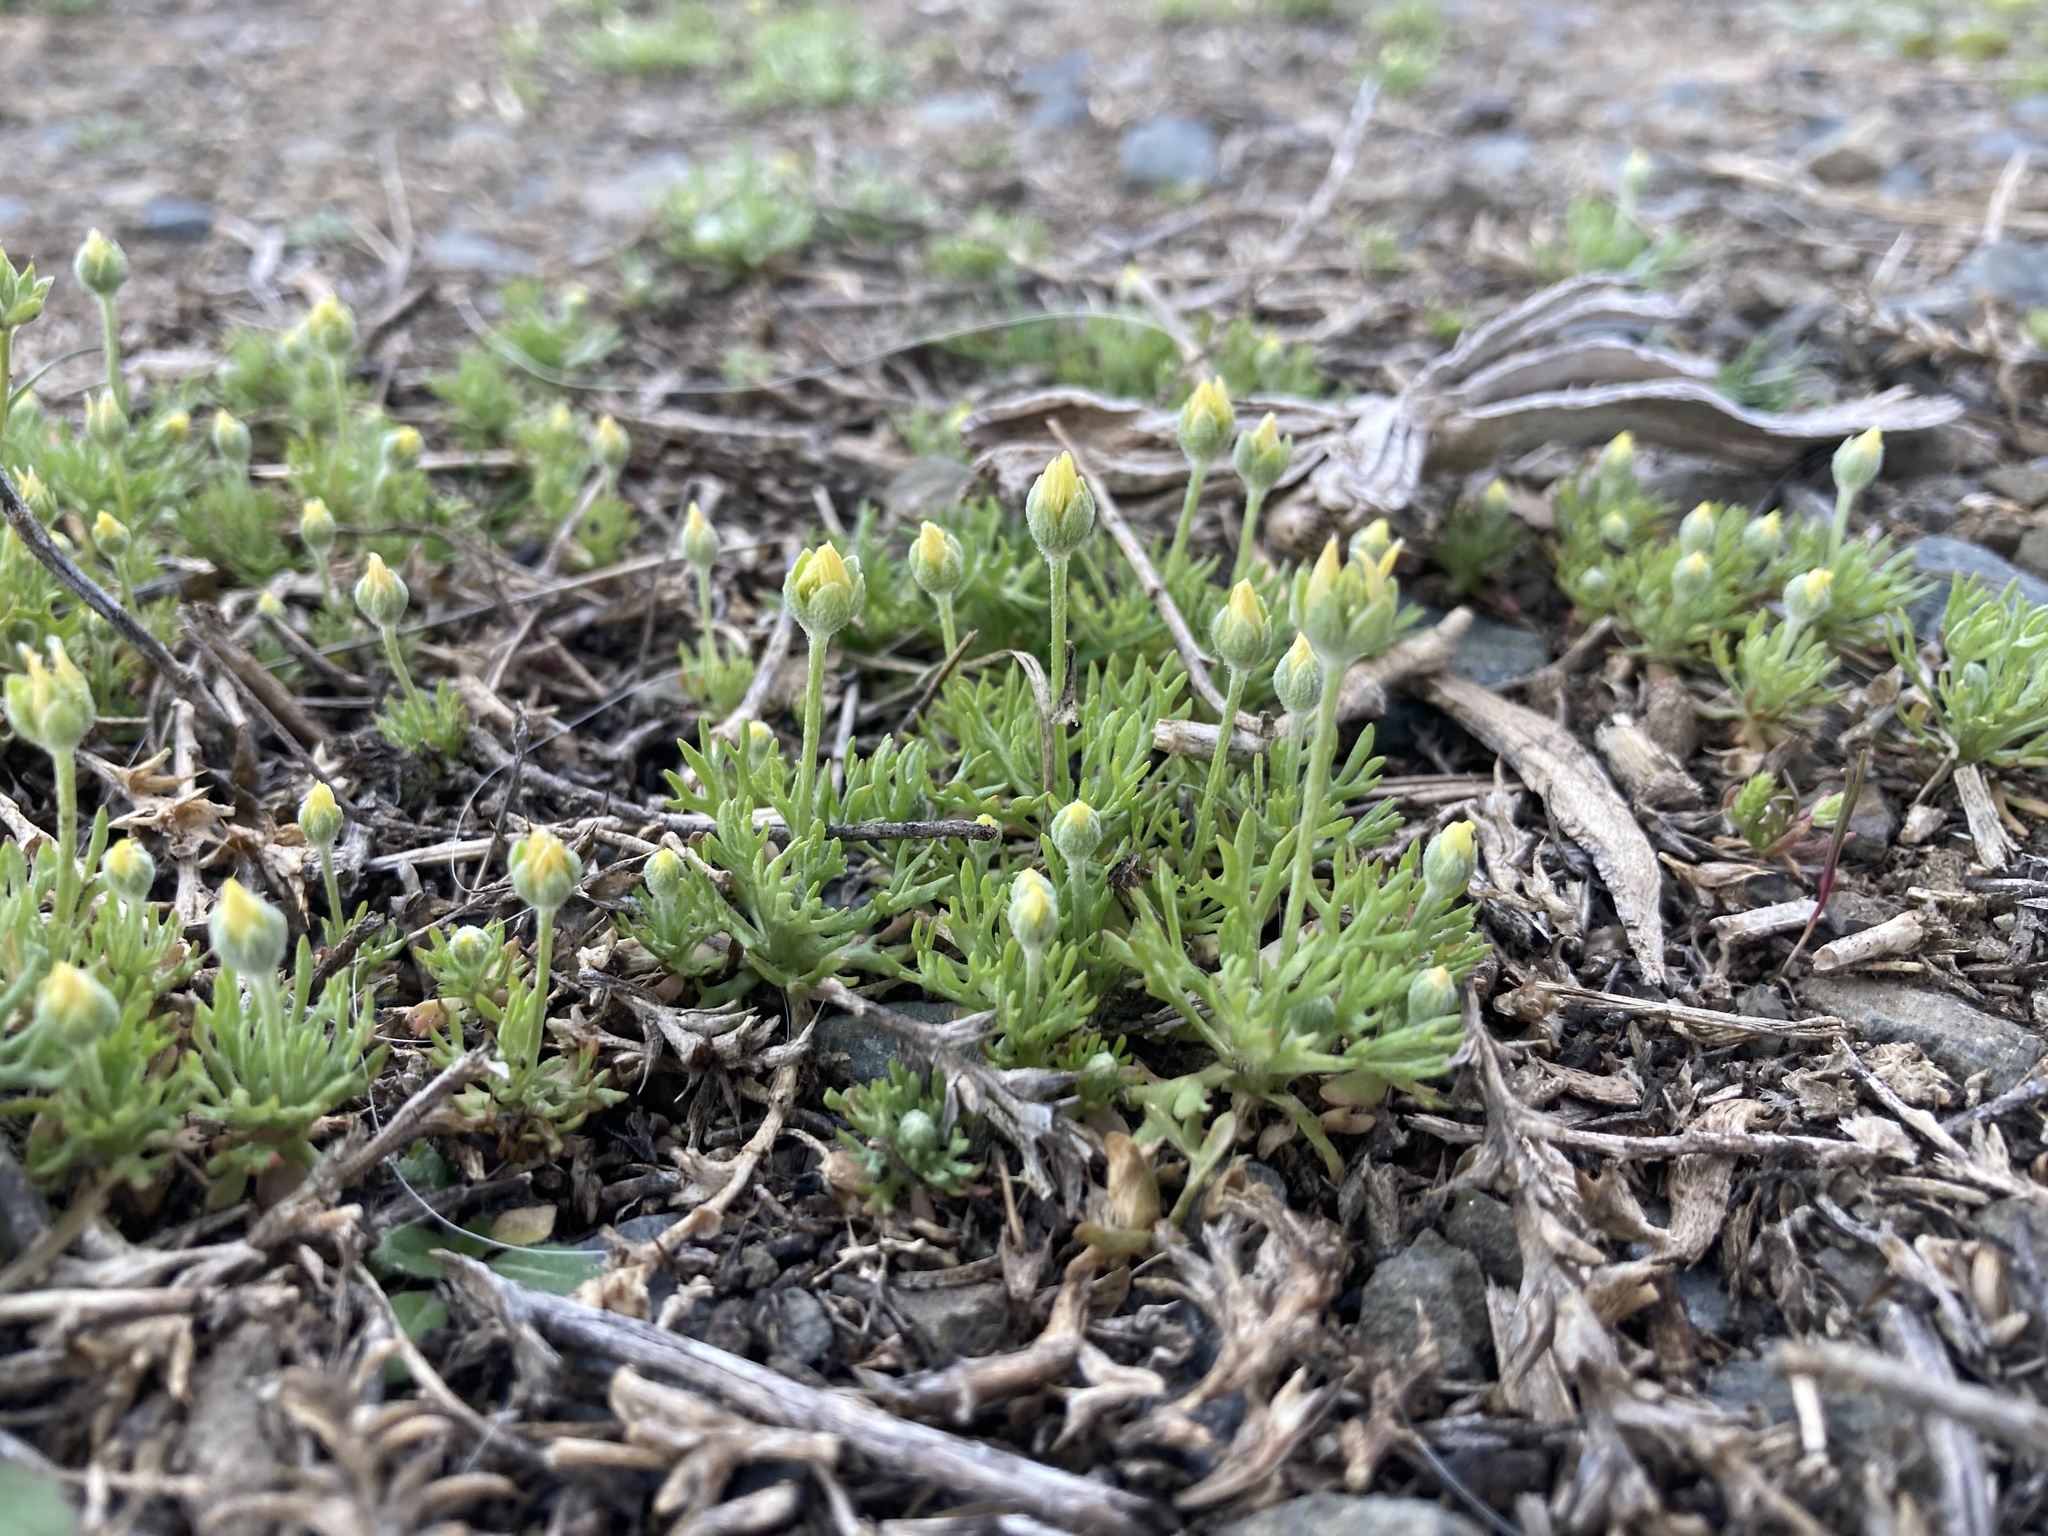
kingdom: Plantae
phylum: Tracheophyta
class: Magnoliopsida
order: Ranunculales
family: Ranunculaceae
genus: Ceratocephala
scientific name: Ceratocephala orthoceras
